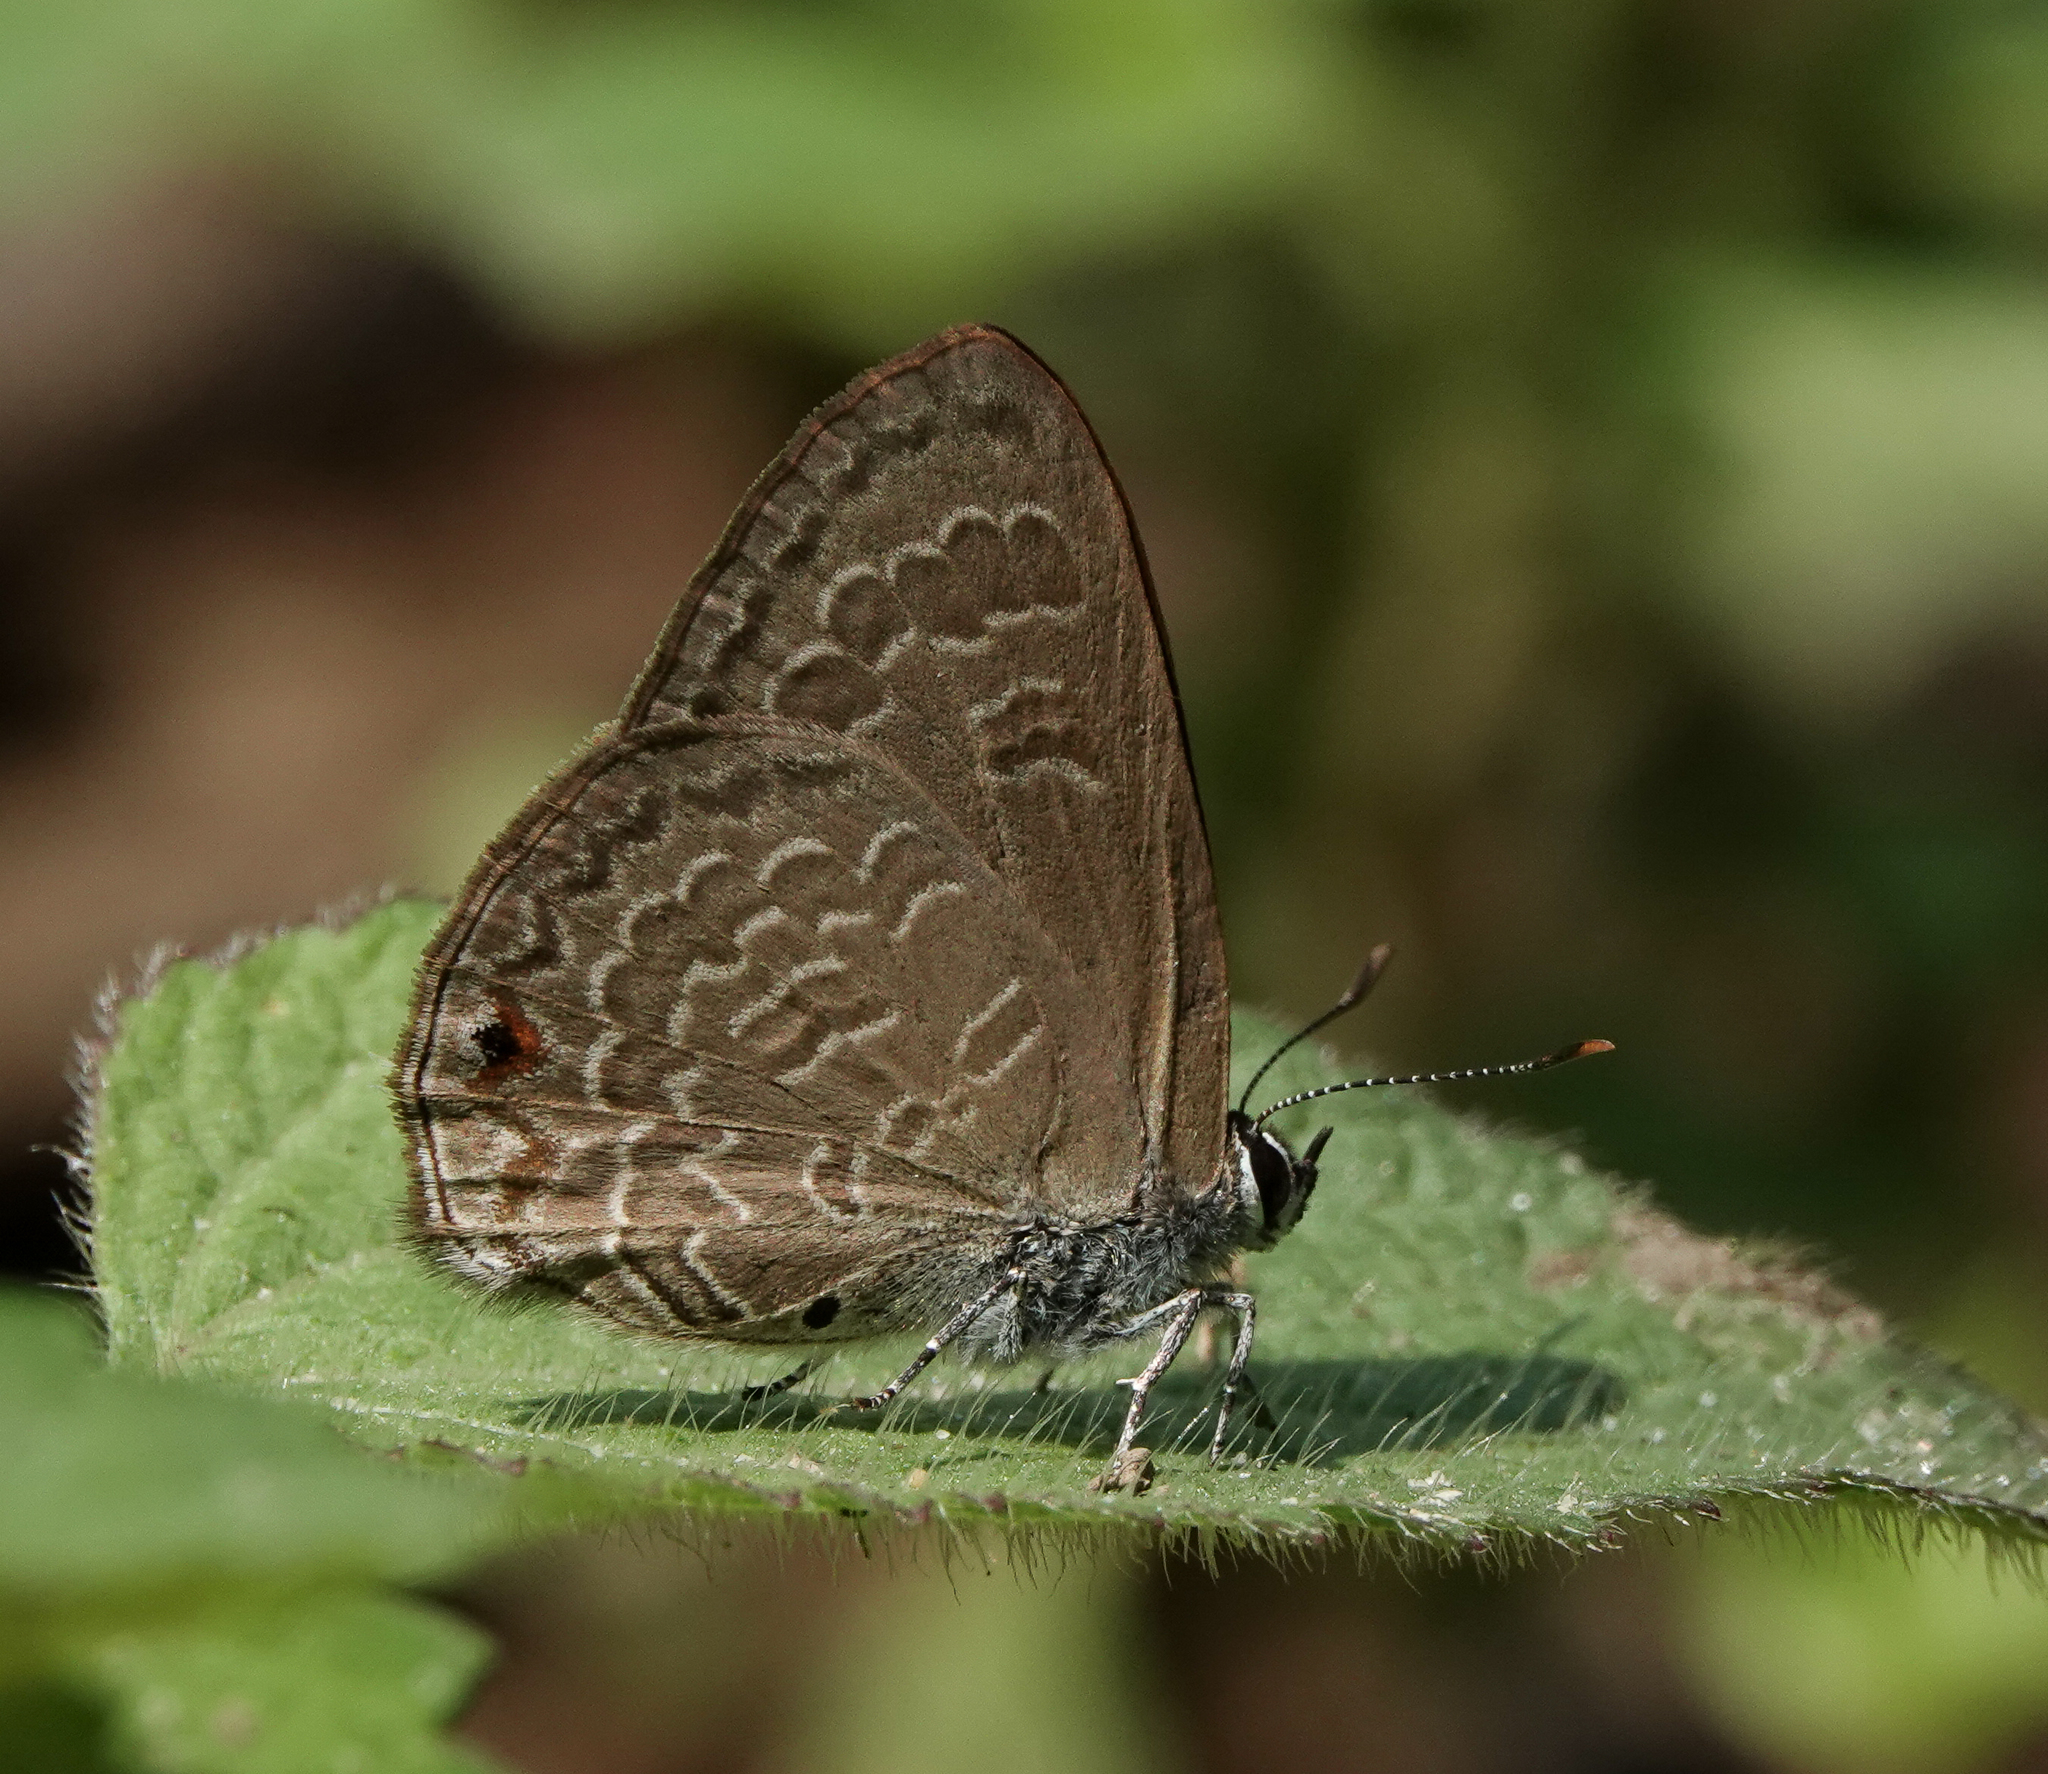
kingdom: Animalia
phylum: Arthropoda
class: Insecta
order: Lepidoptera
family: Lycaenidae
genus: Anthene
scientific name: Anthene emolus
